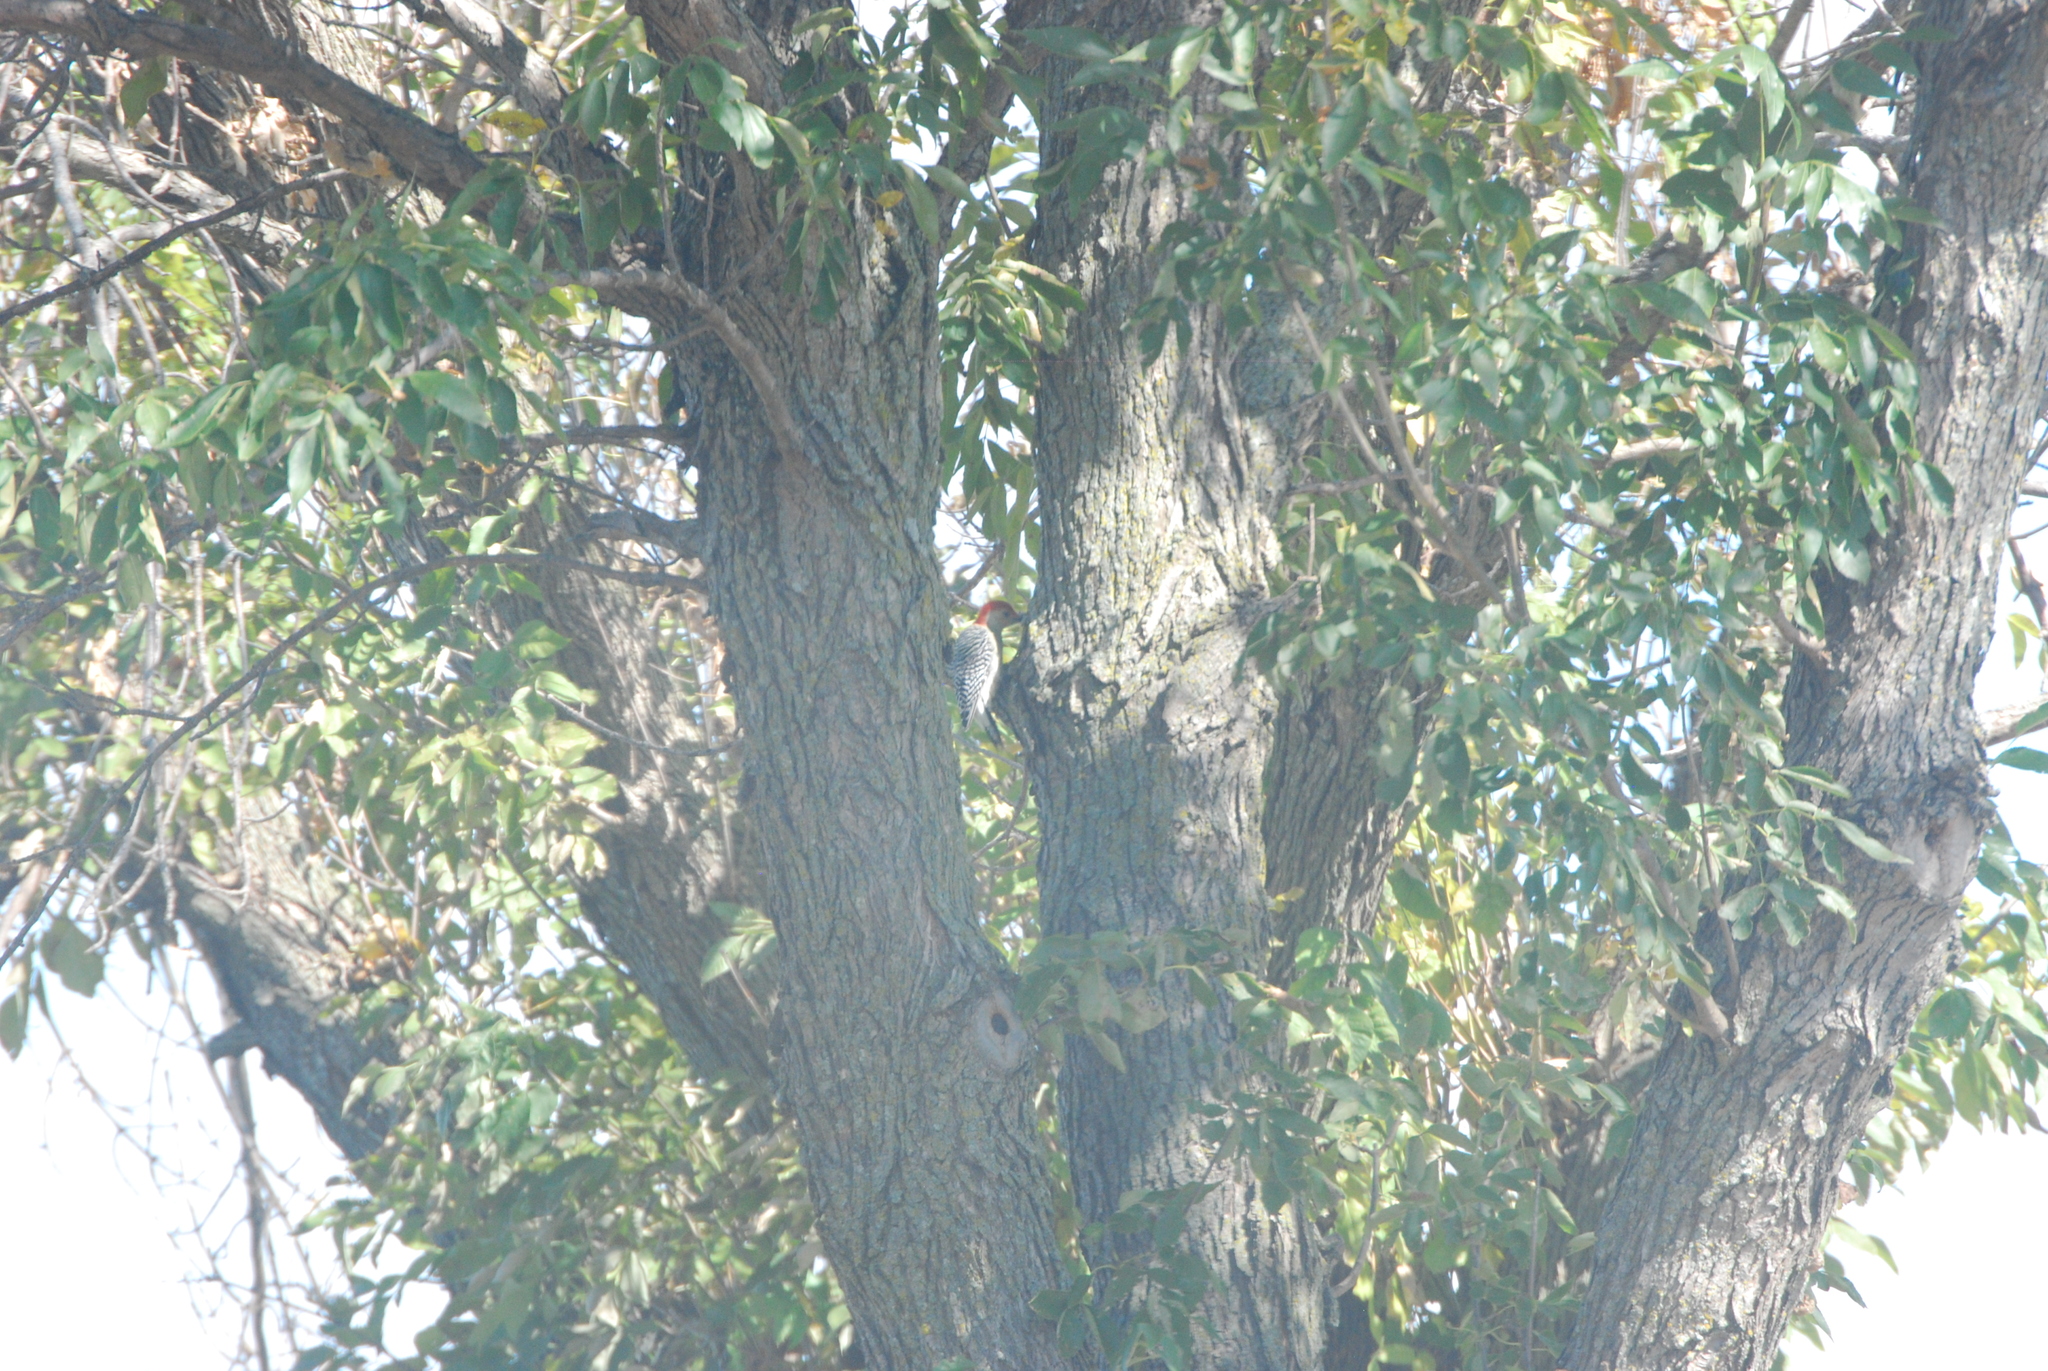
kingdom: Animalia
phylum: Chordata
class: Aves
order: Piciformes
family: Picidae
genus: Melanerpes
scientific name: Melanerpes carolinus
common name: Red-bellied woodpecker
